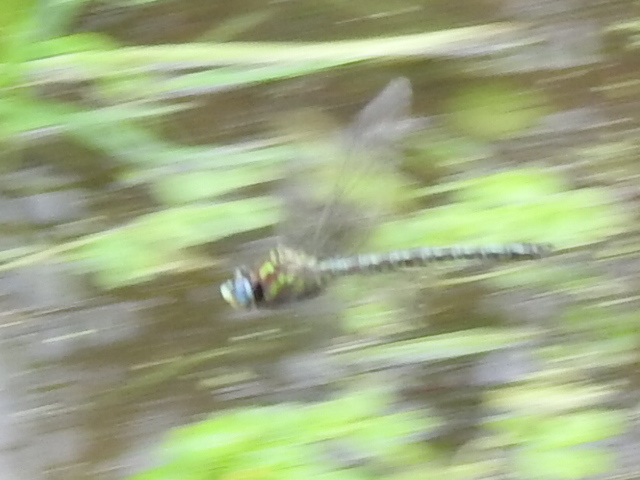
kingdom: Animalia
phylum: Arthropoda
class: Insecta
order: Odonata
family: Aeshnidae
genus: Nasiaeschna
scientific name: Nasiaeschna pentacantha
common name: Cyrano darner
